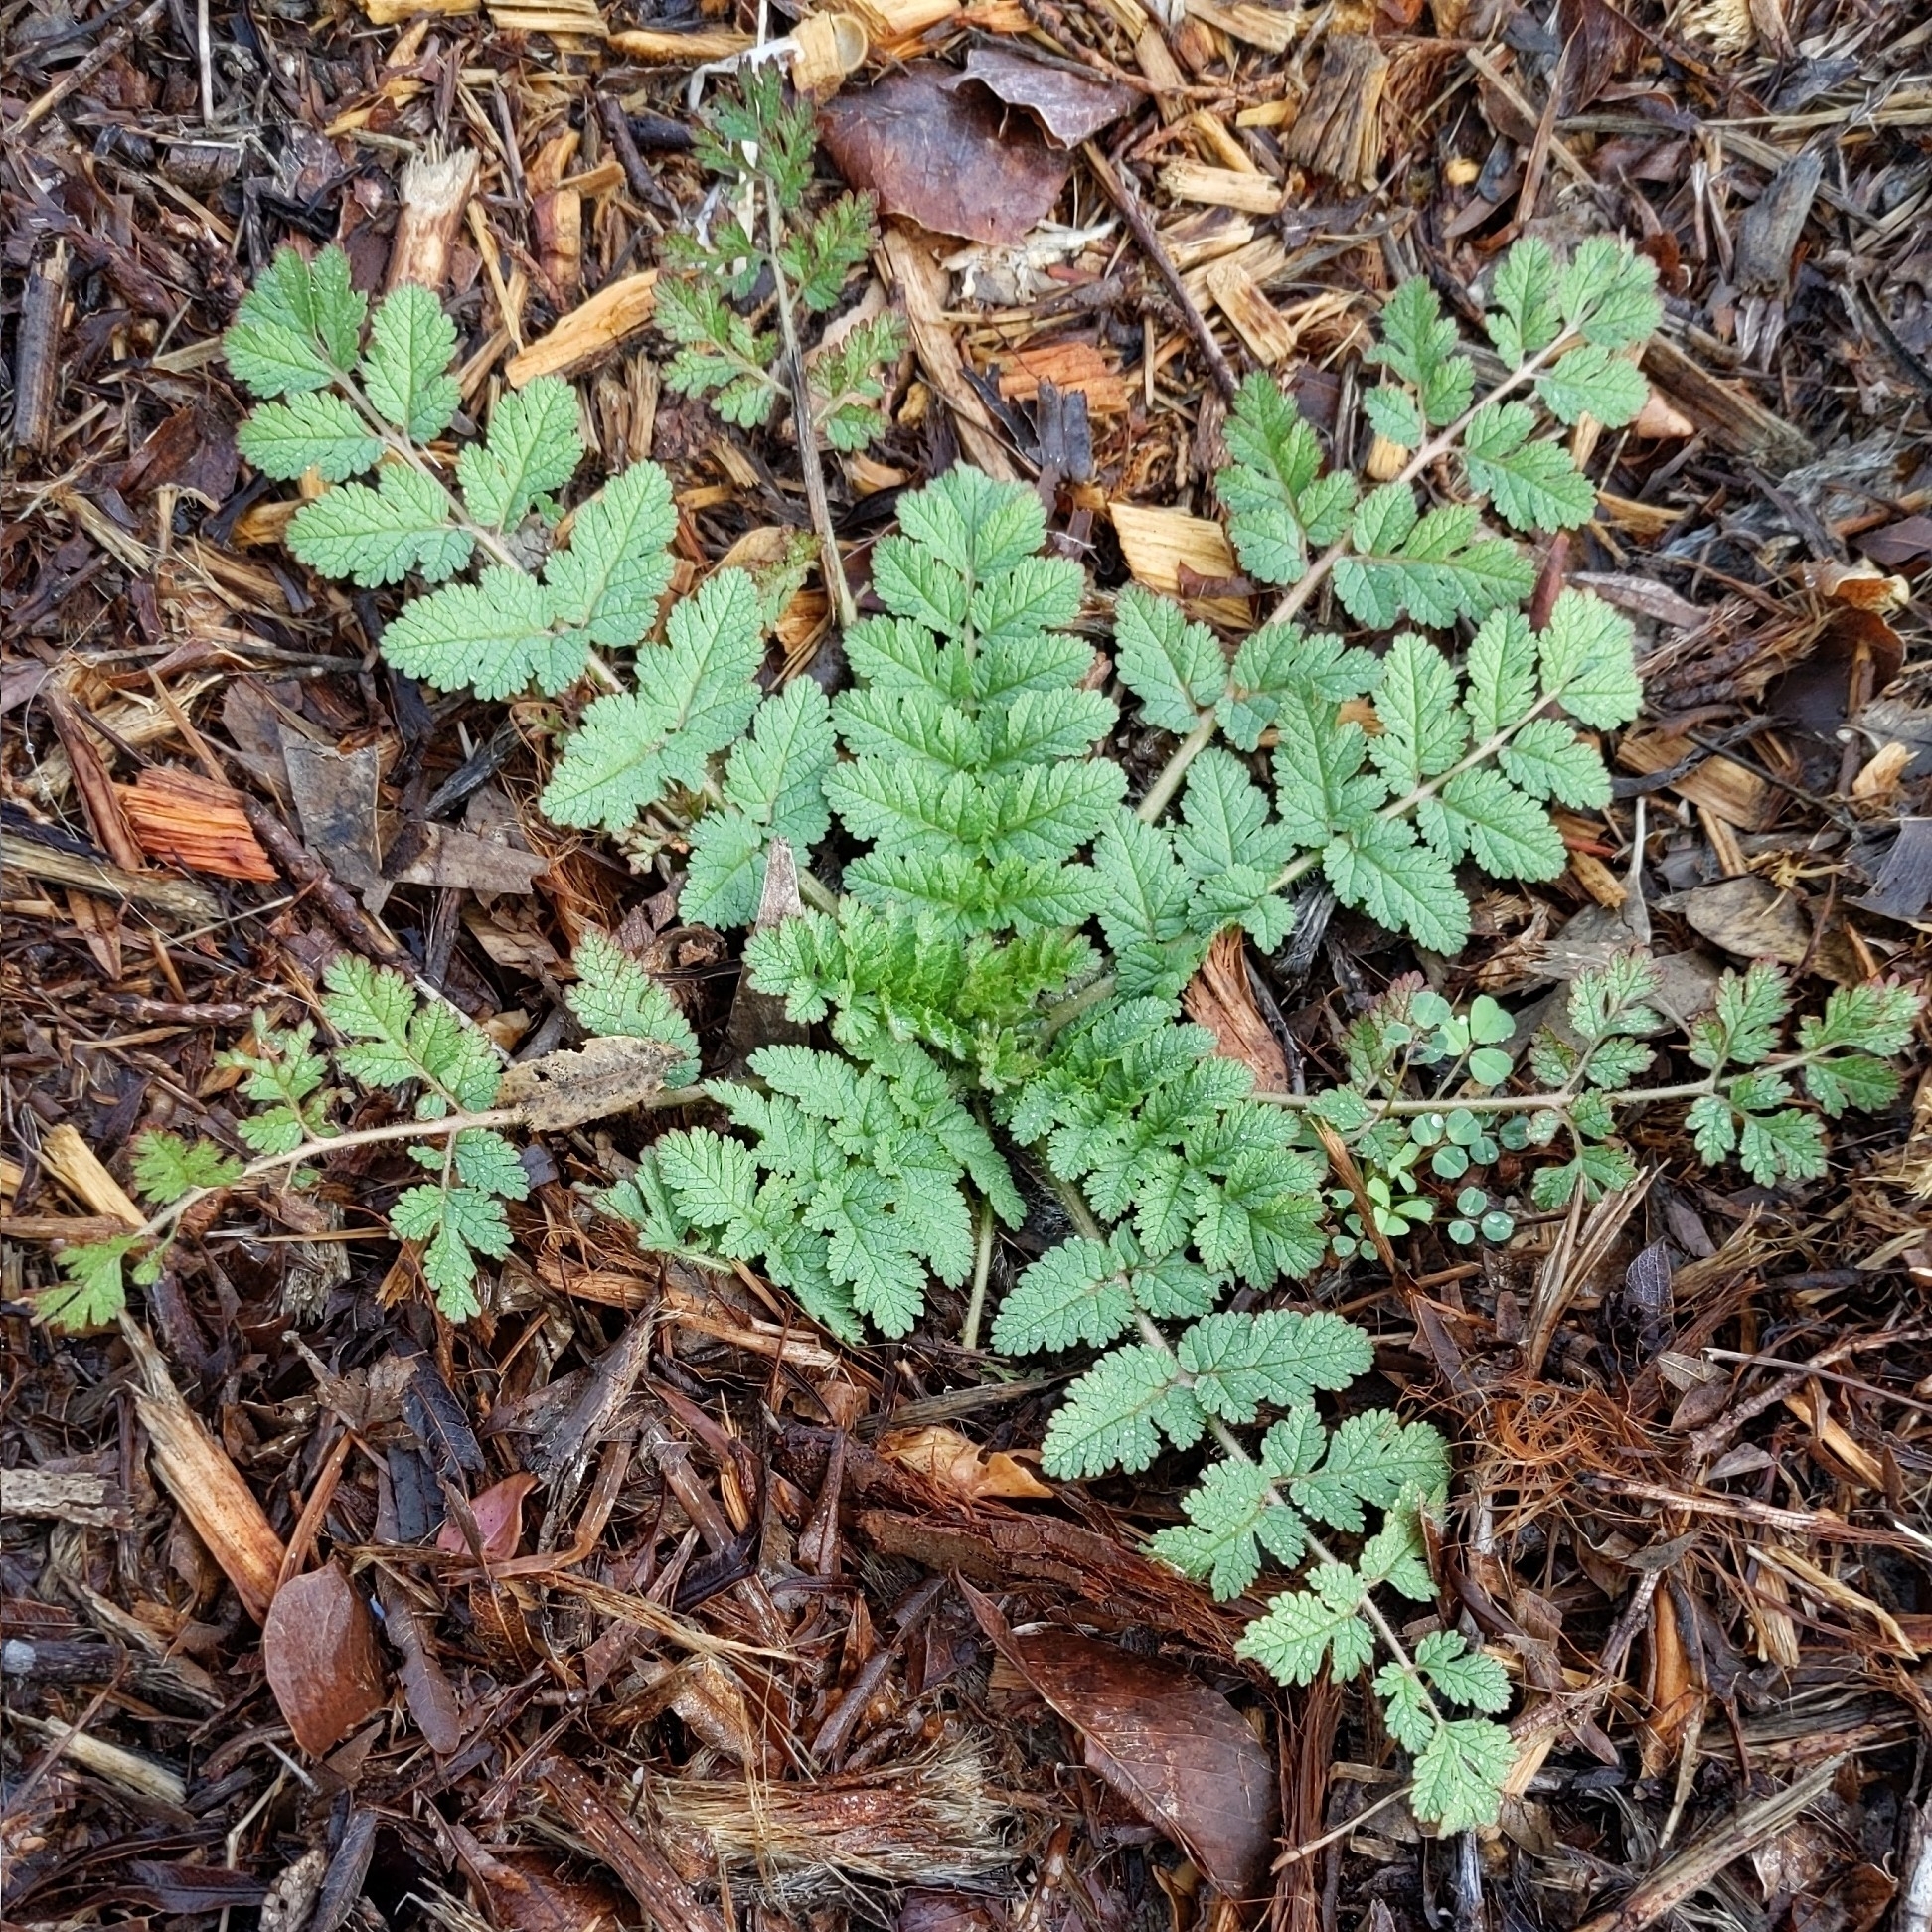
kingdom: Plantae
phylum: Tracheophyta
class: Magnoliopsida
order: Geraniales
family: Geraniaceae
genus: Erodium
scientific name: Erodium moschatum
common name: Musk stork's-bill
